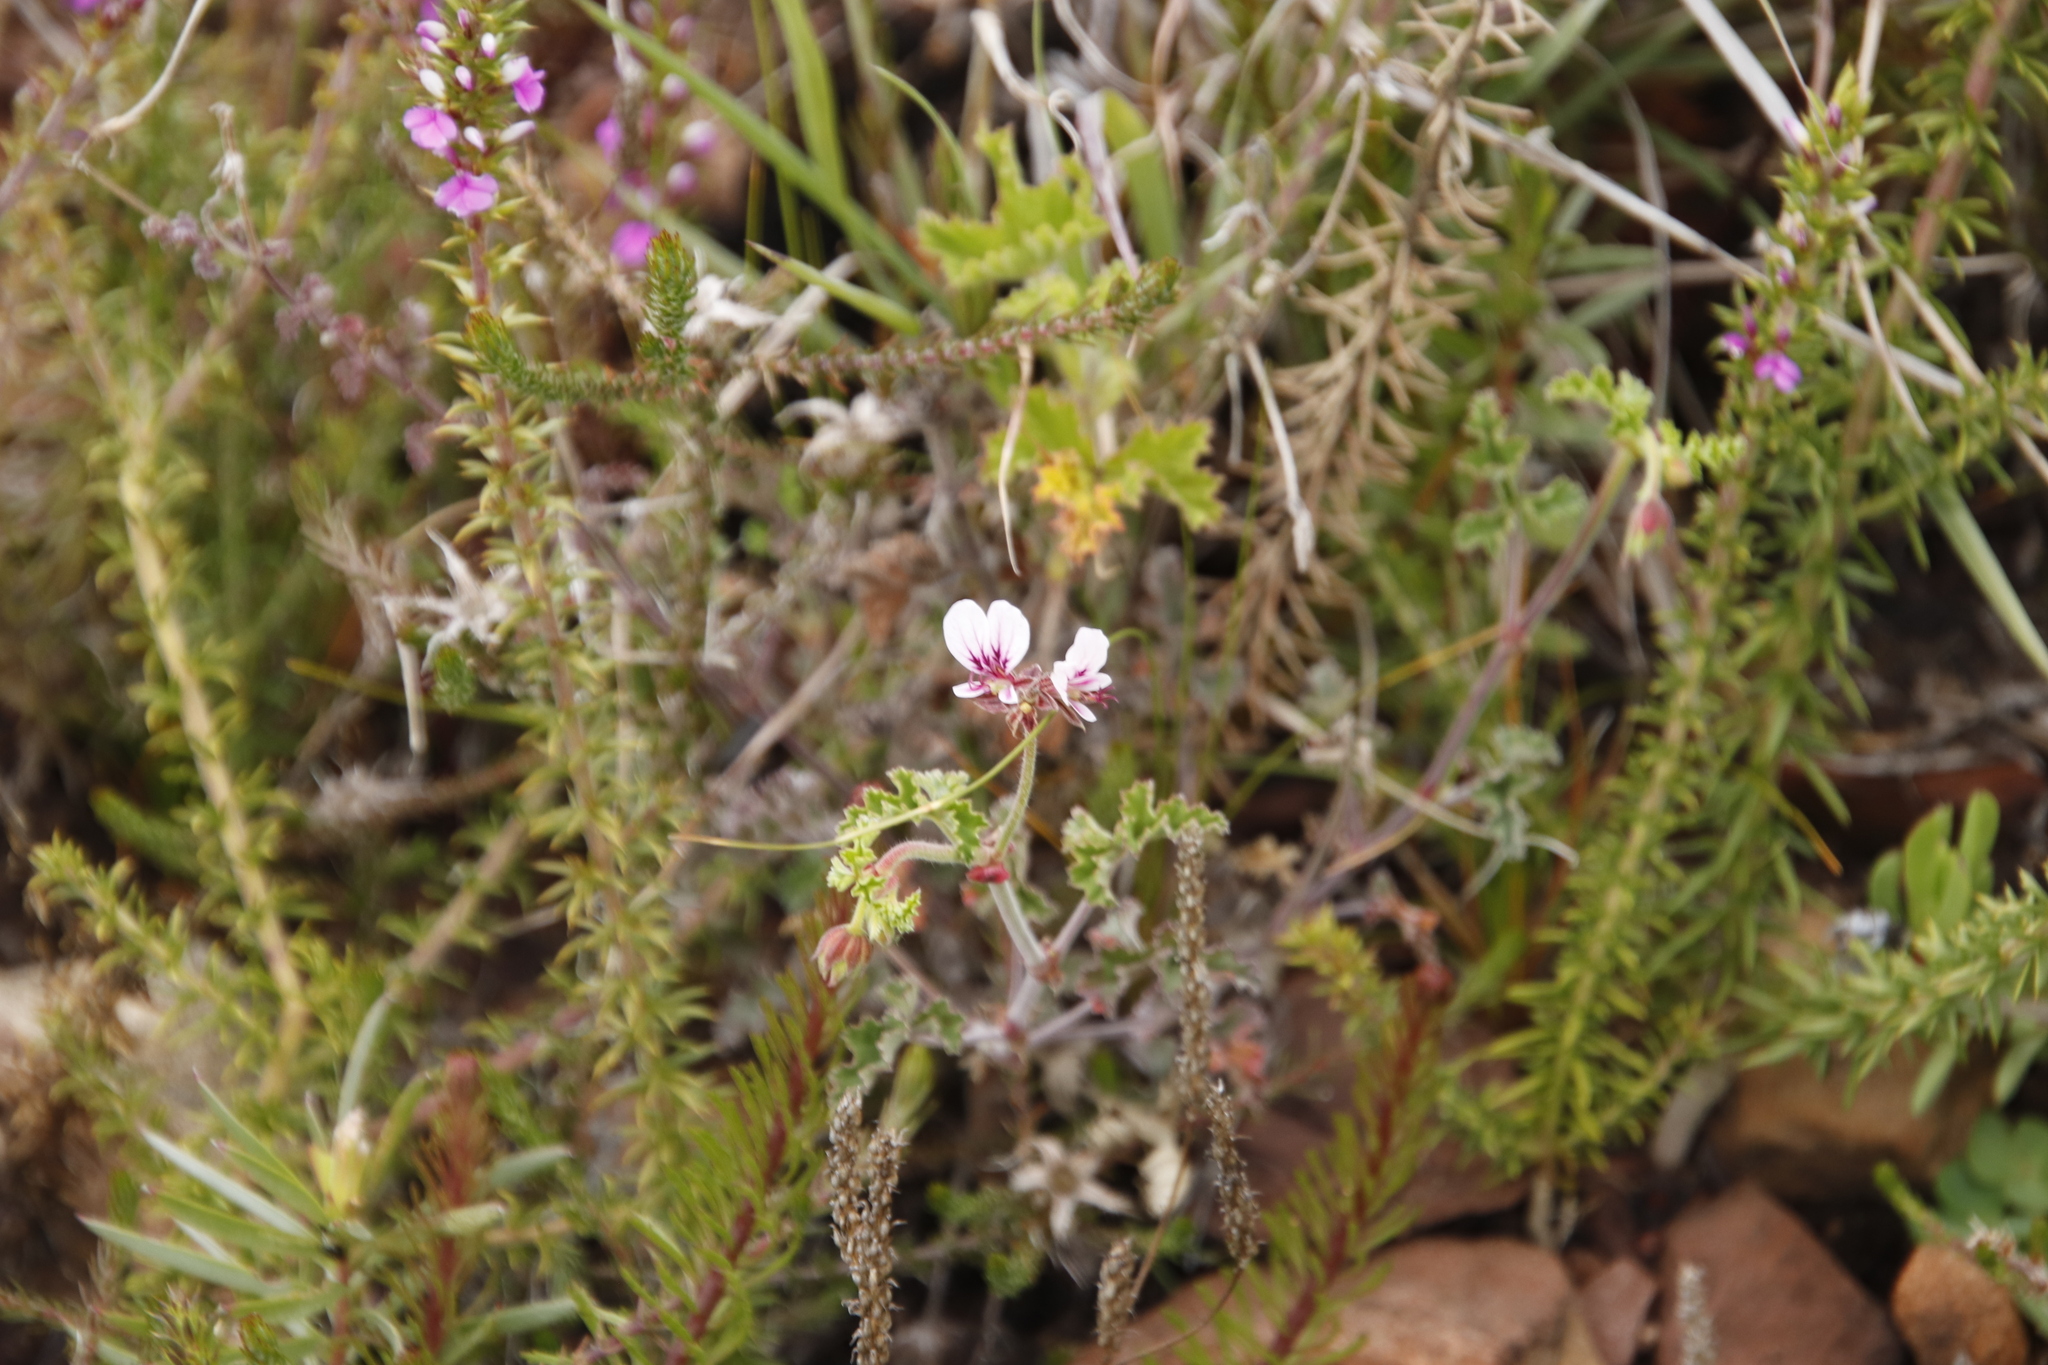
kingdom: Plantae
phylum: Tracheophyta
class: Magnoliopsida
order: Geraniales
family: Geraniaceae
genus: Pelargonium
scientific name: Pelargonium candicans
